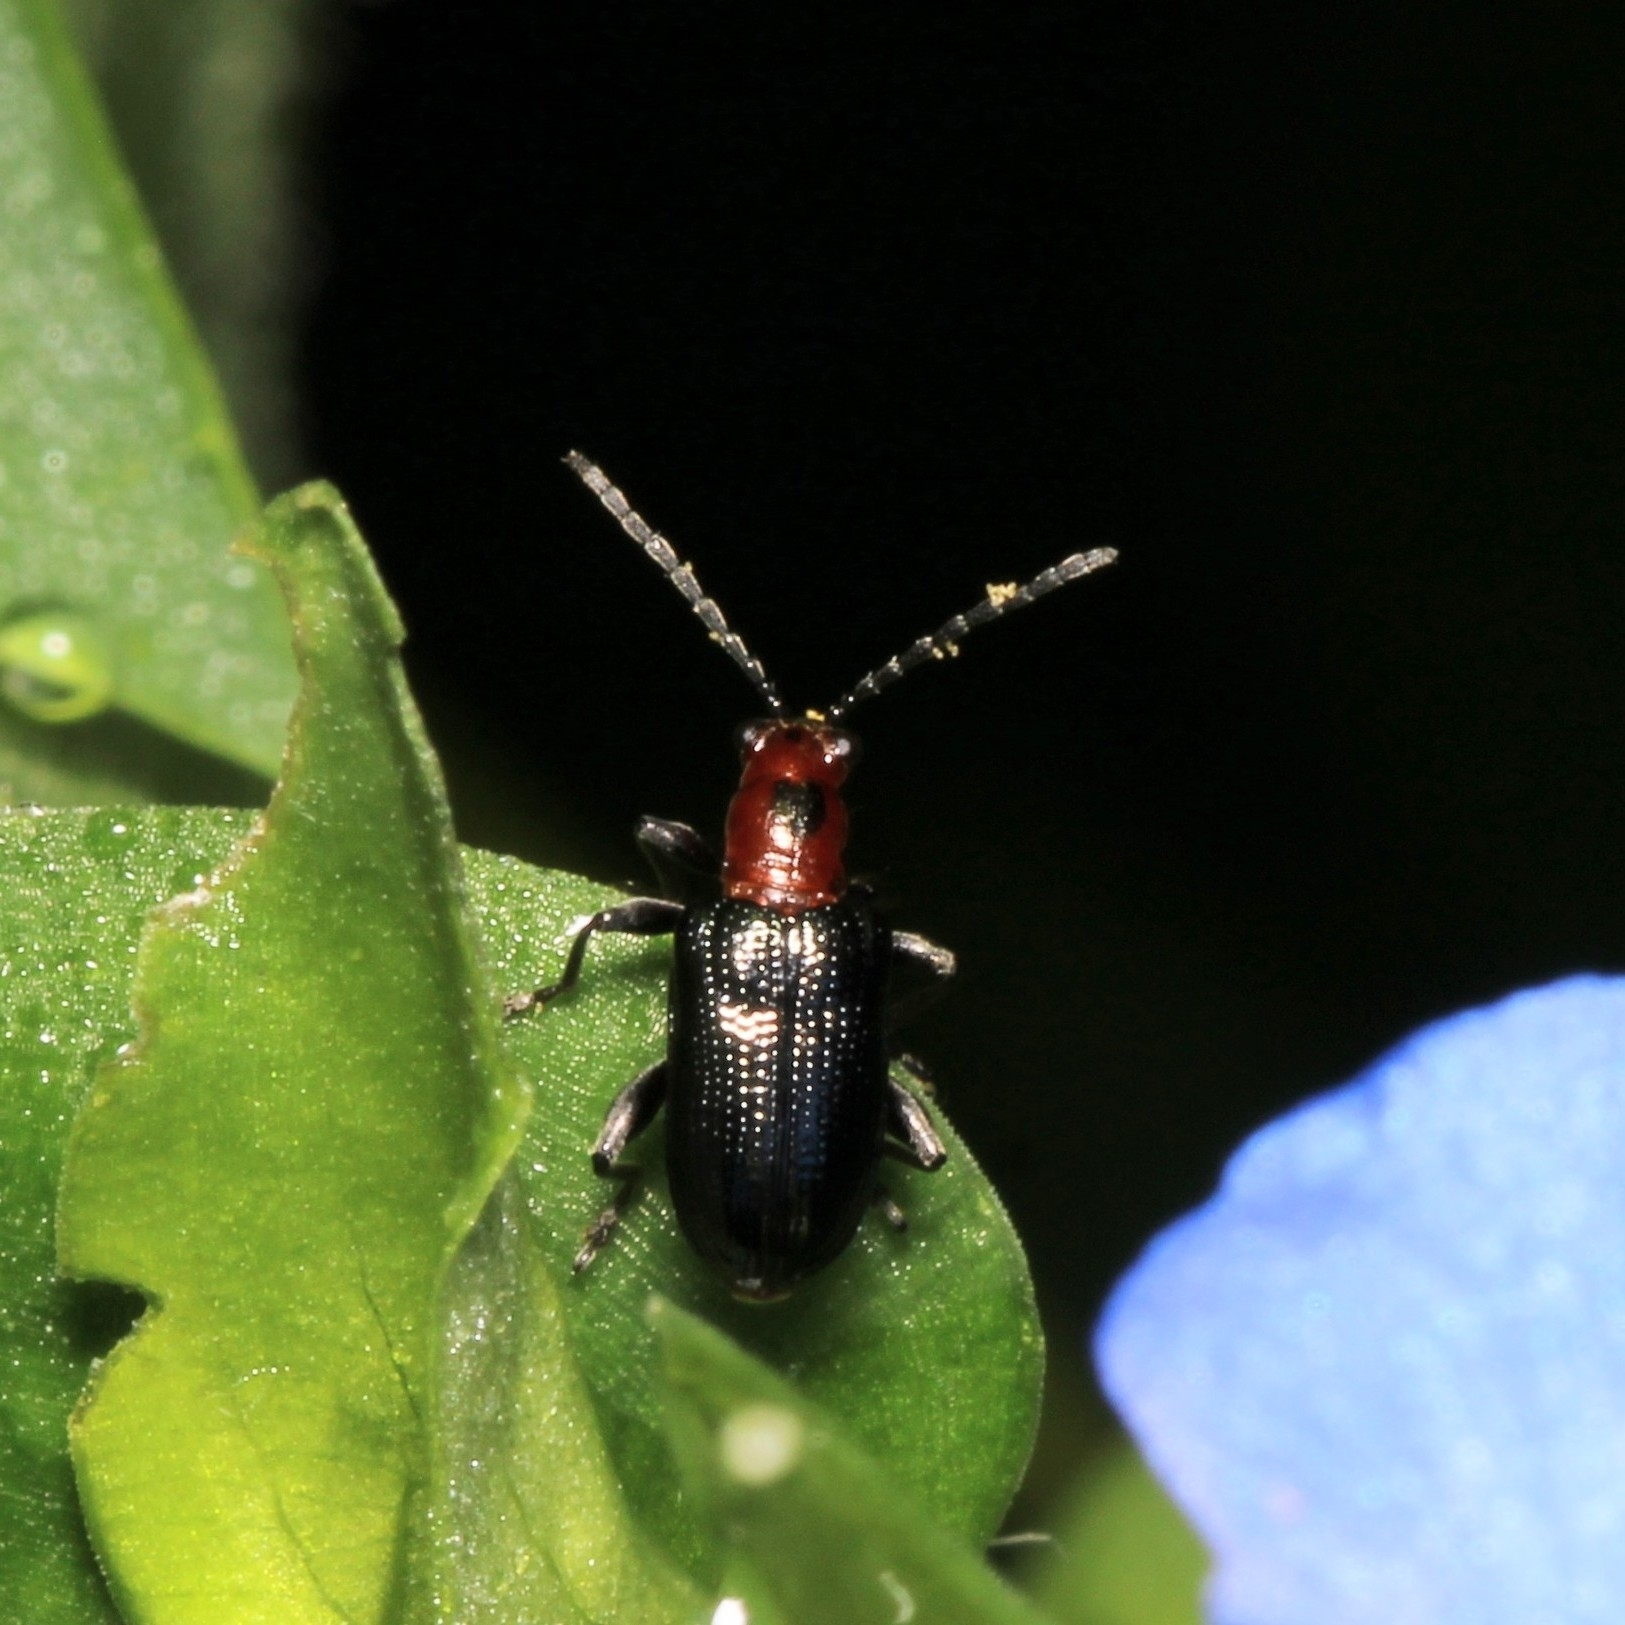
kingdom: Animalia
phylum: Arthropoda
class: Insecta
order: Coleoptera
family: Chrysomelidae
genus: Oulema
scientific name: Oulema sayi
